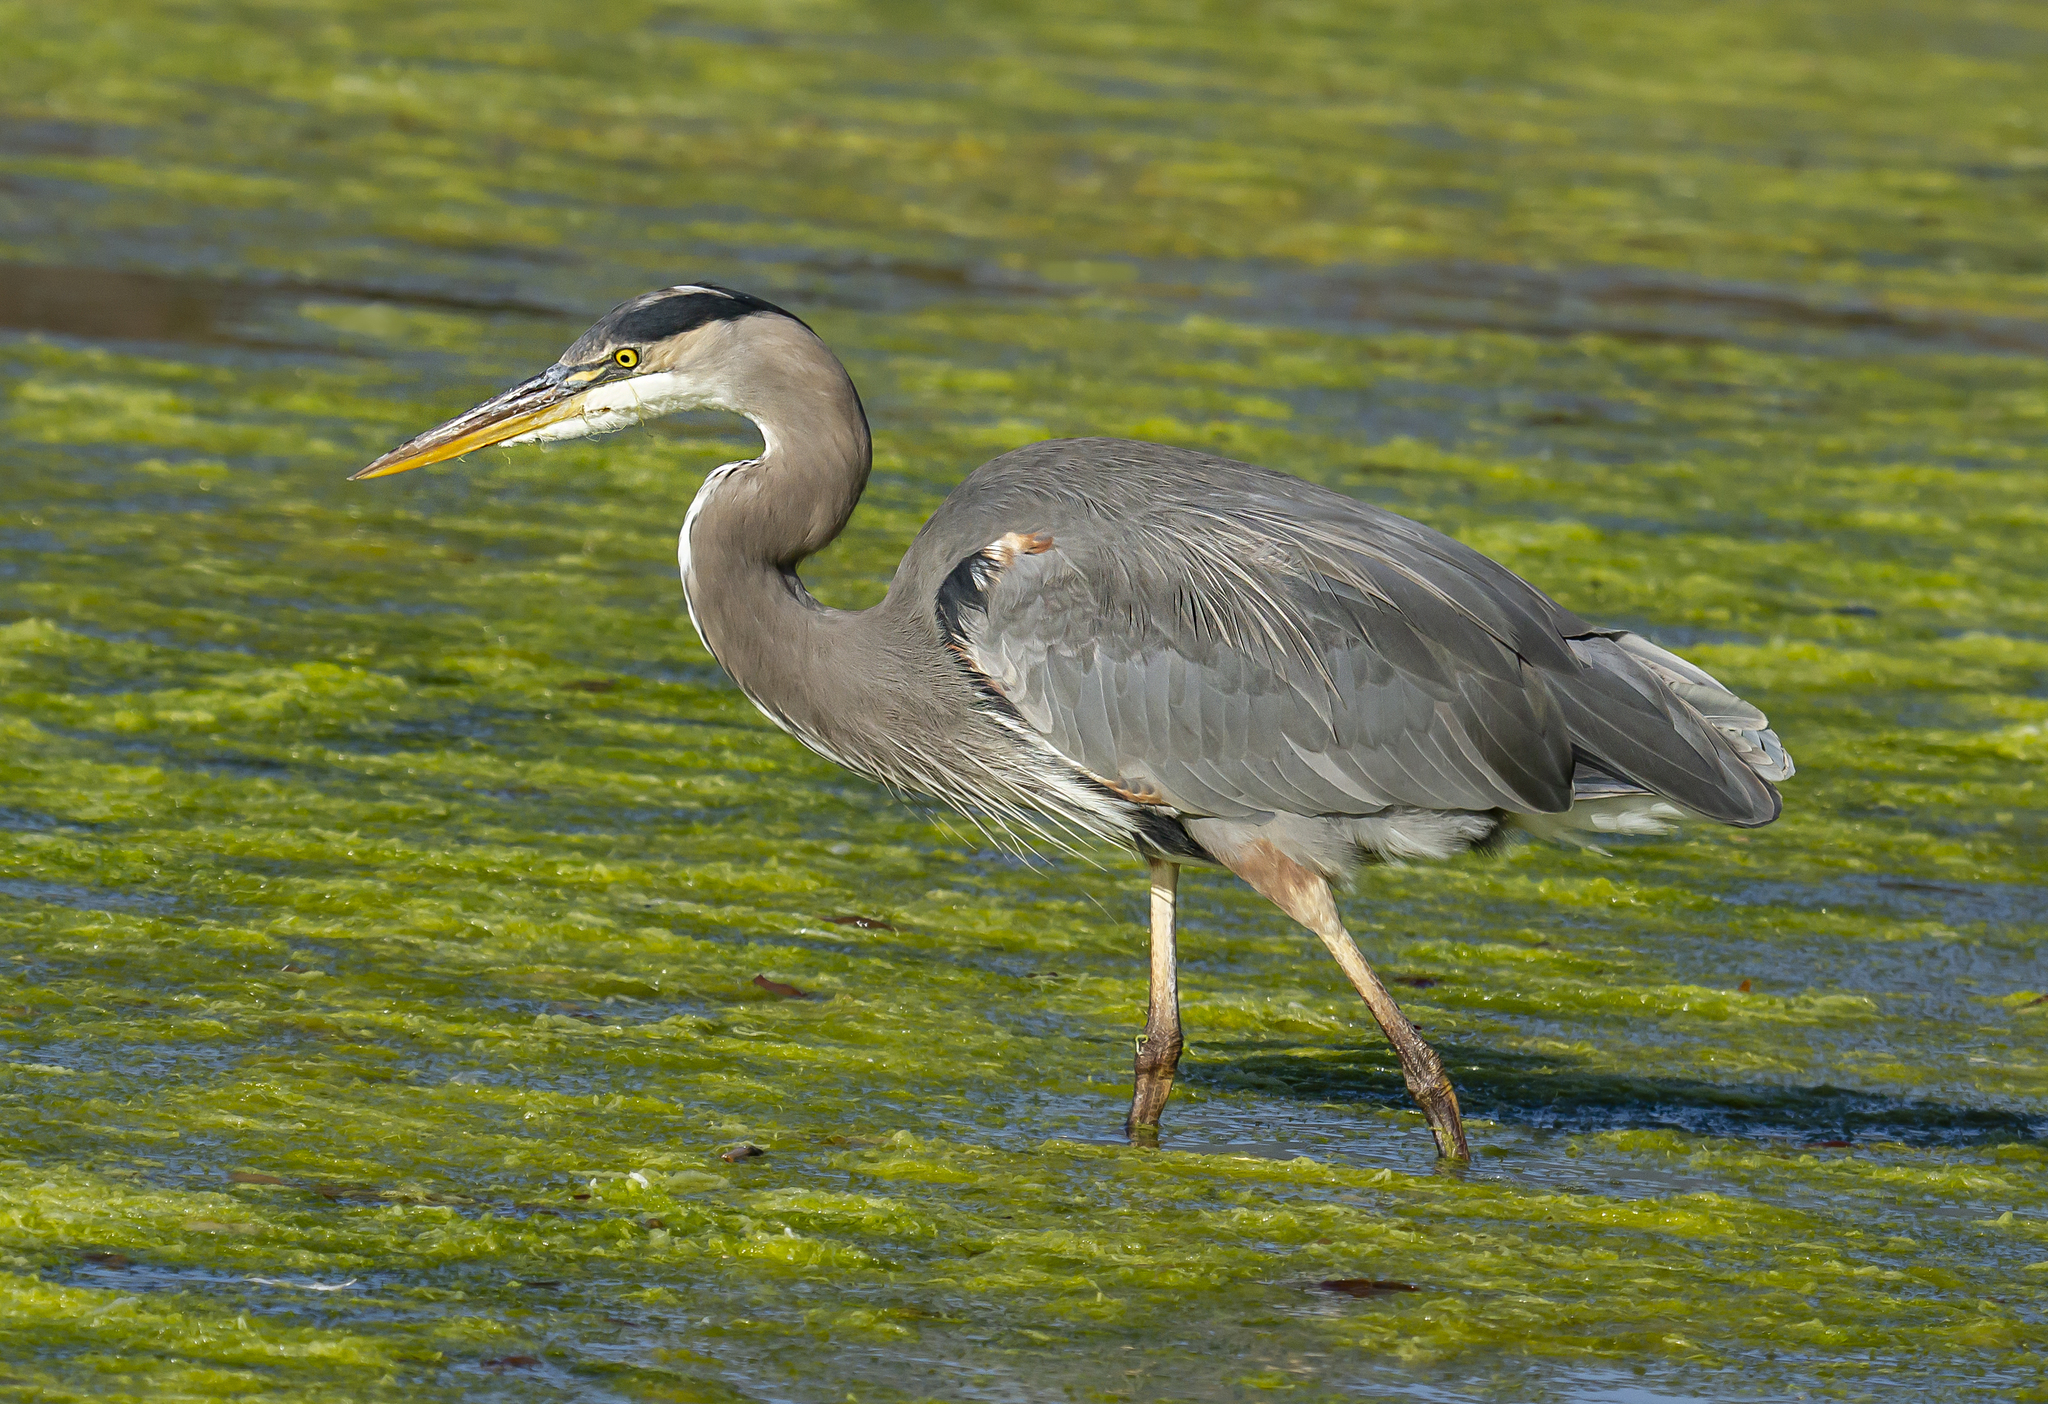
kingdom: Animalia
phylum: Chordata
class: Aves
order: Pelecaniformes
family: Ardeidae
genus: Ardea
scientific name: Ardea herodias
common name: Great blue heron
